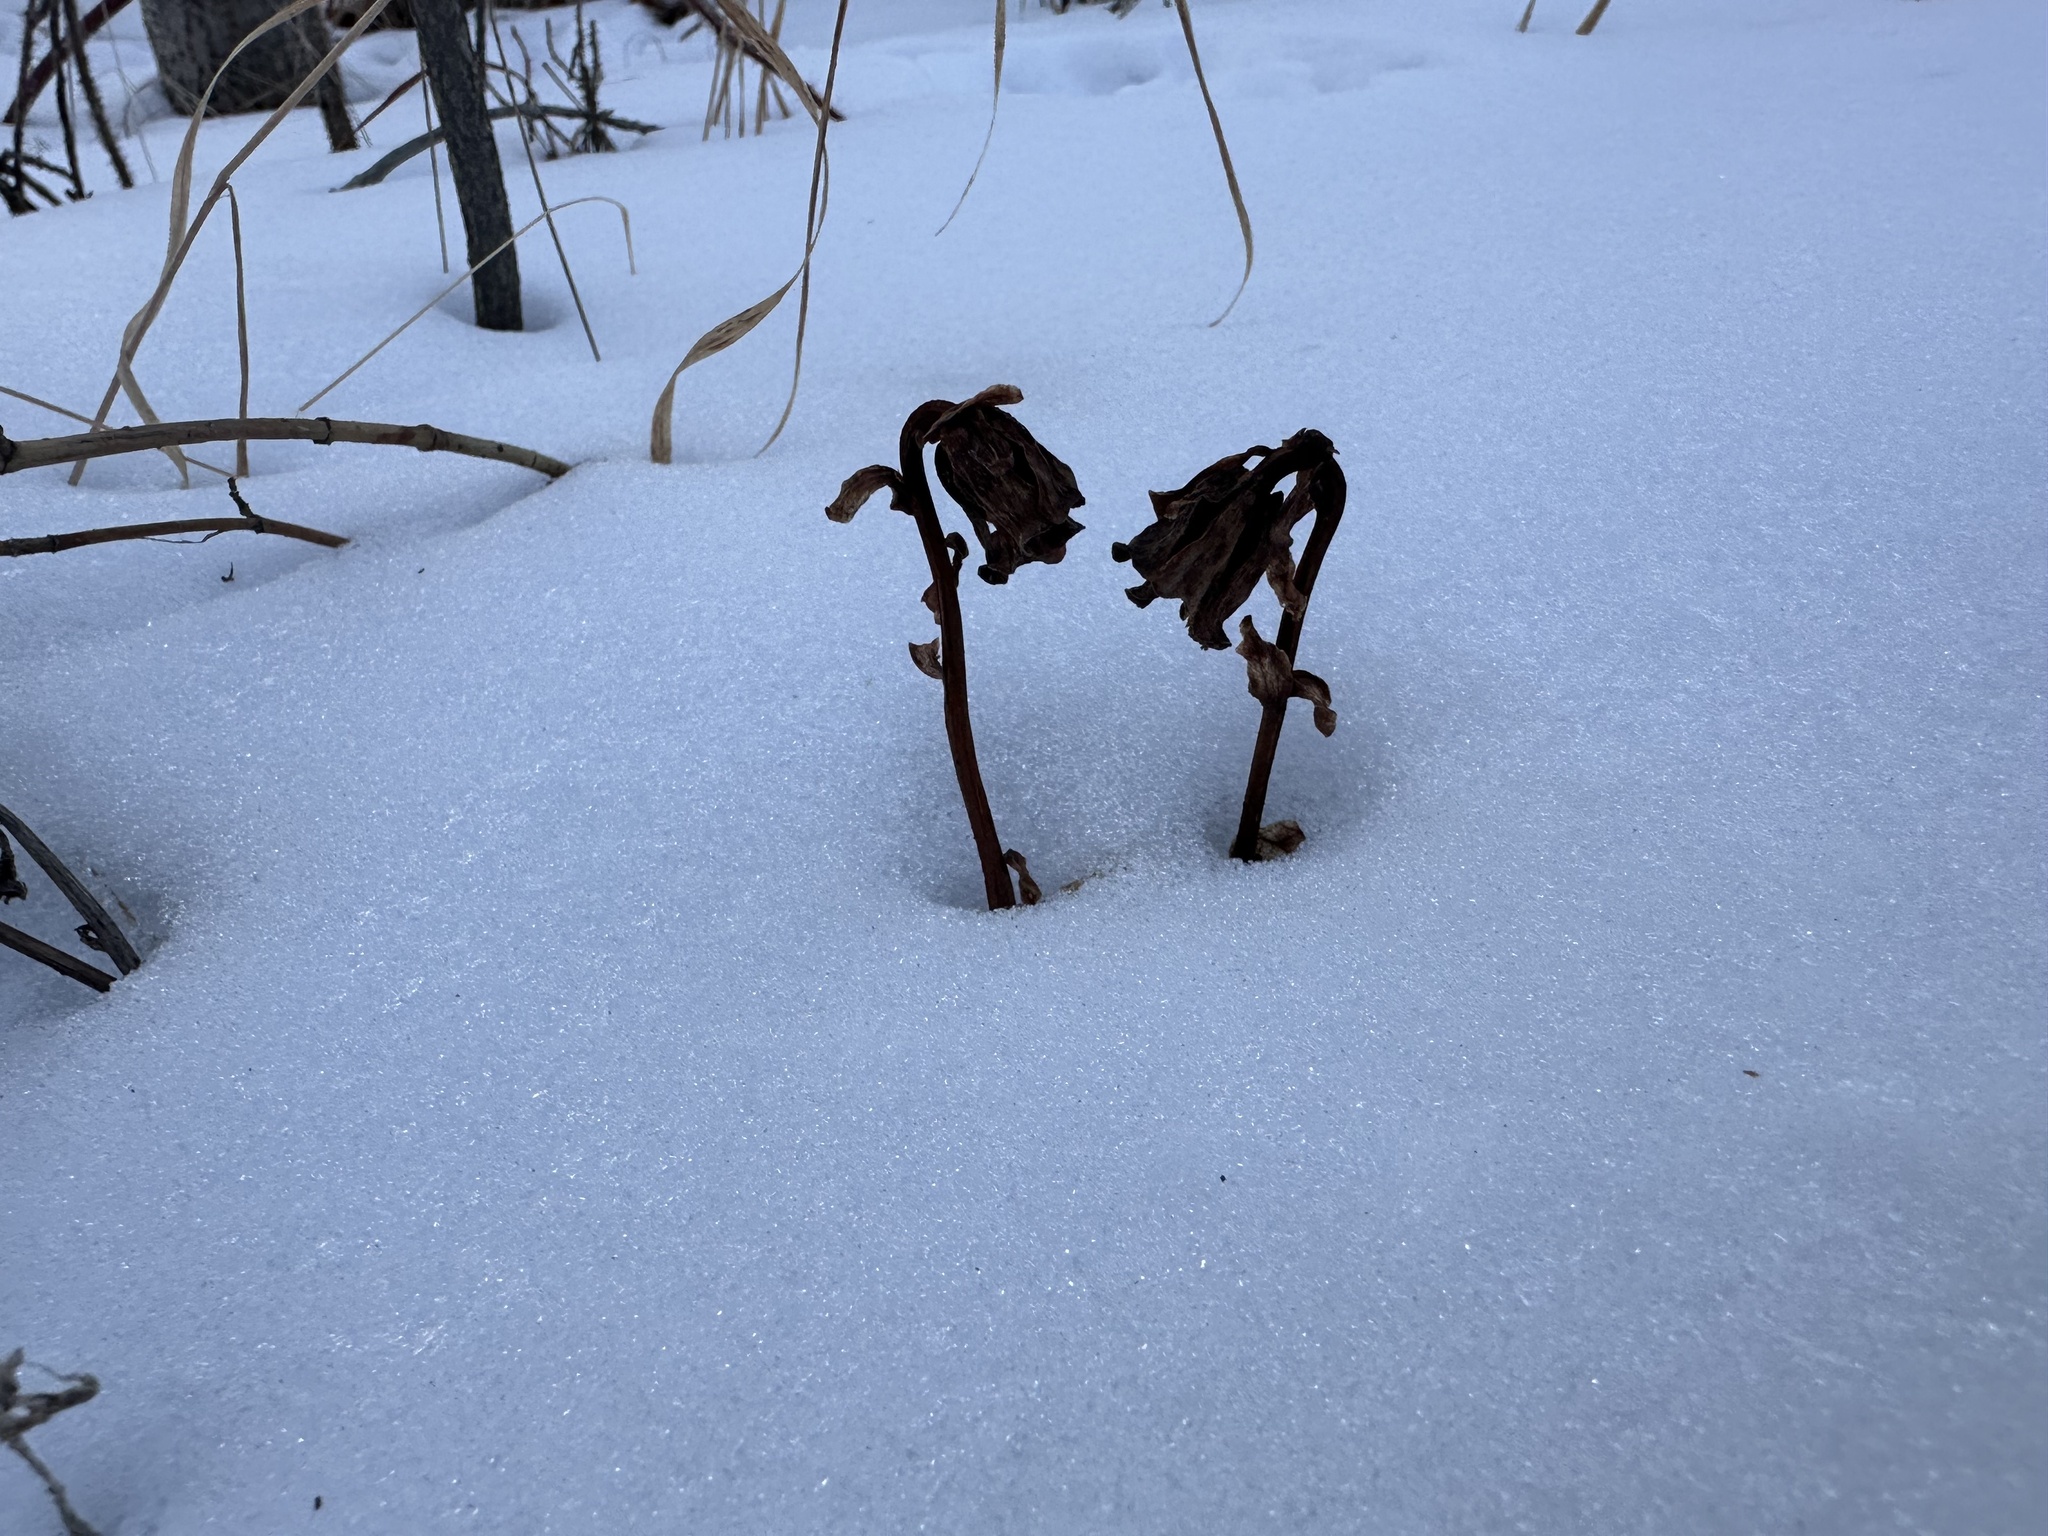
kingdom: Plantae
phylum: Tracheophyta
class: Magnoliopsida
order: Ericales
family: Ericaceae
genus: Monotropa
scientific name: Monotropa uniflora
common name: Convulsion root
